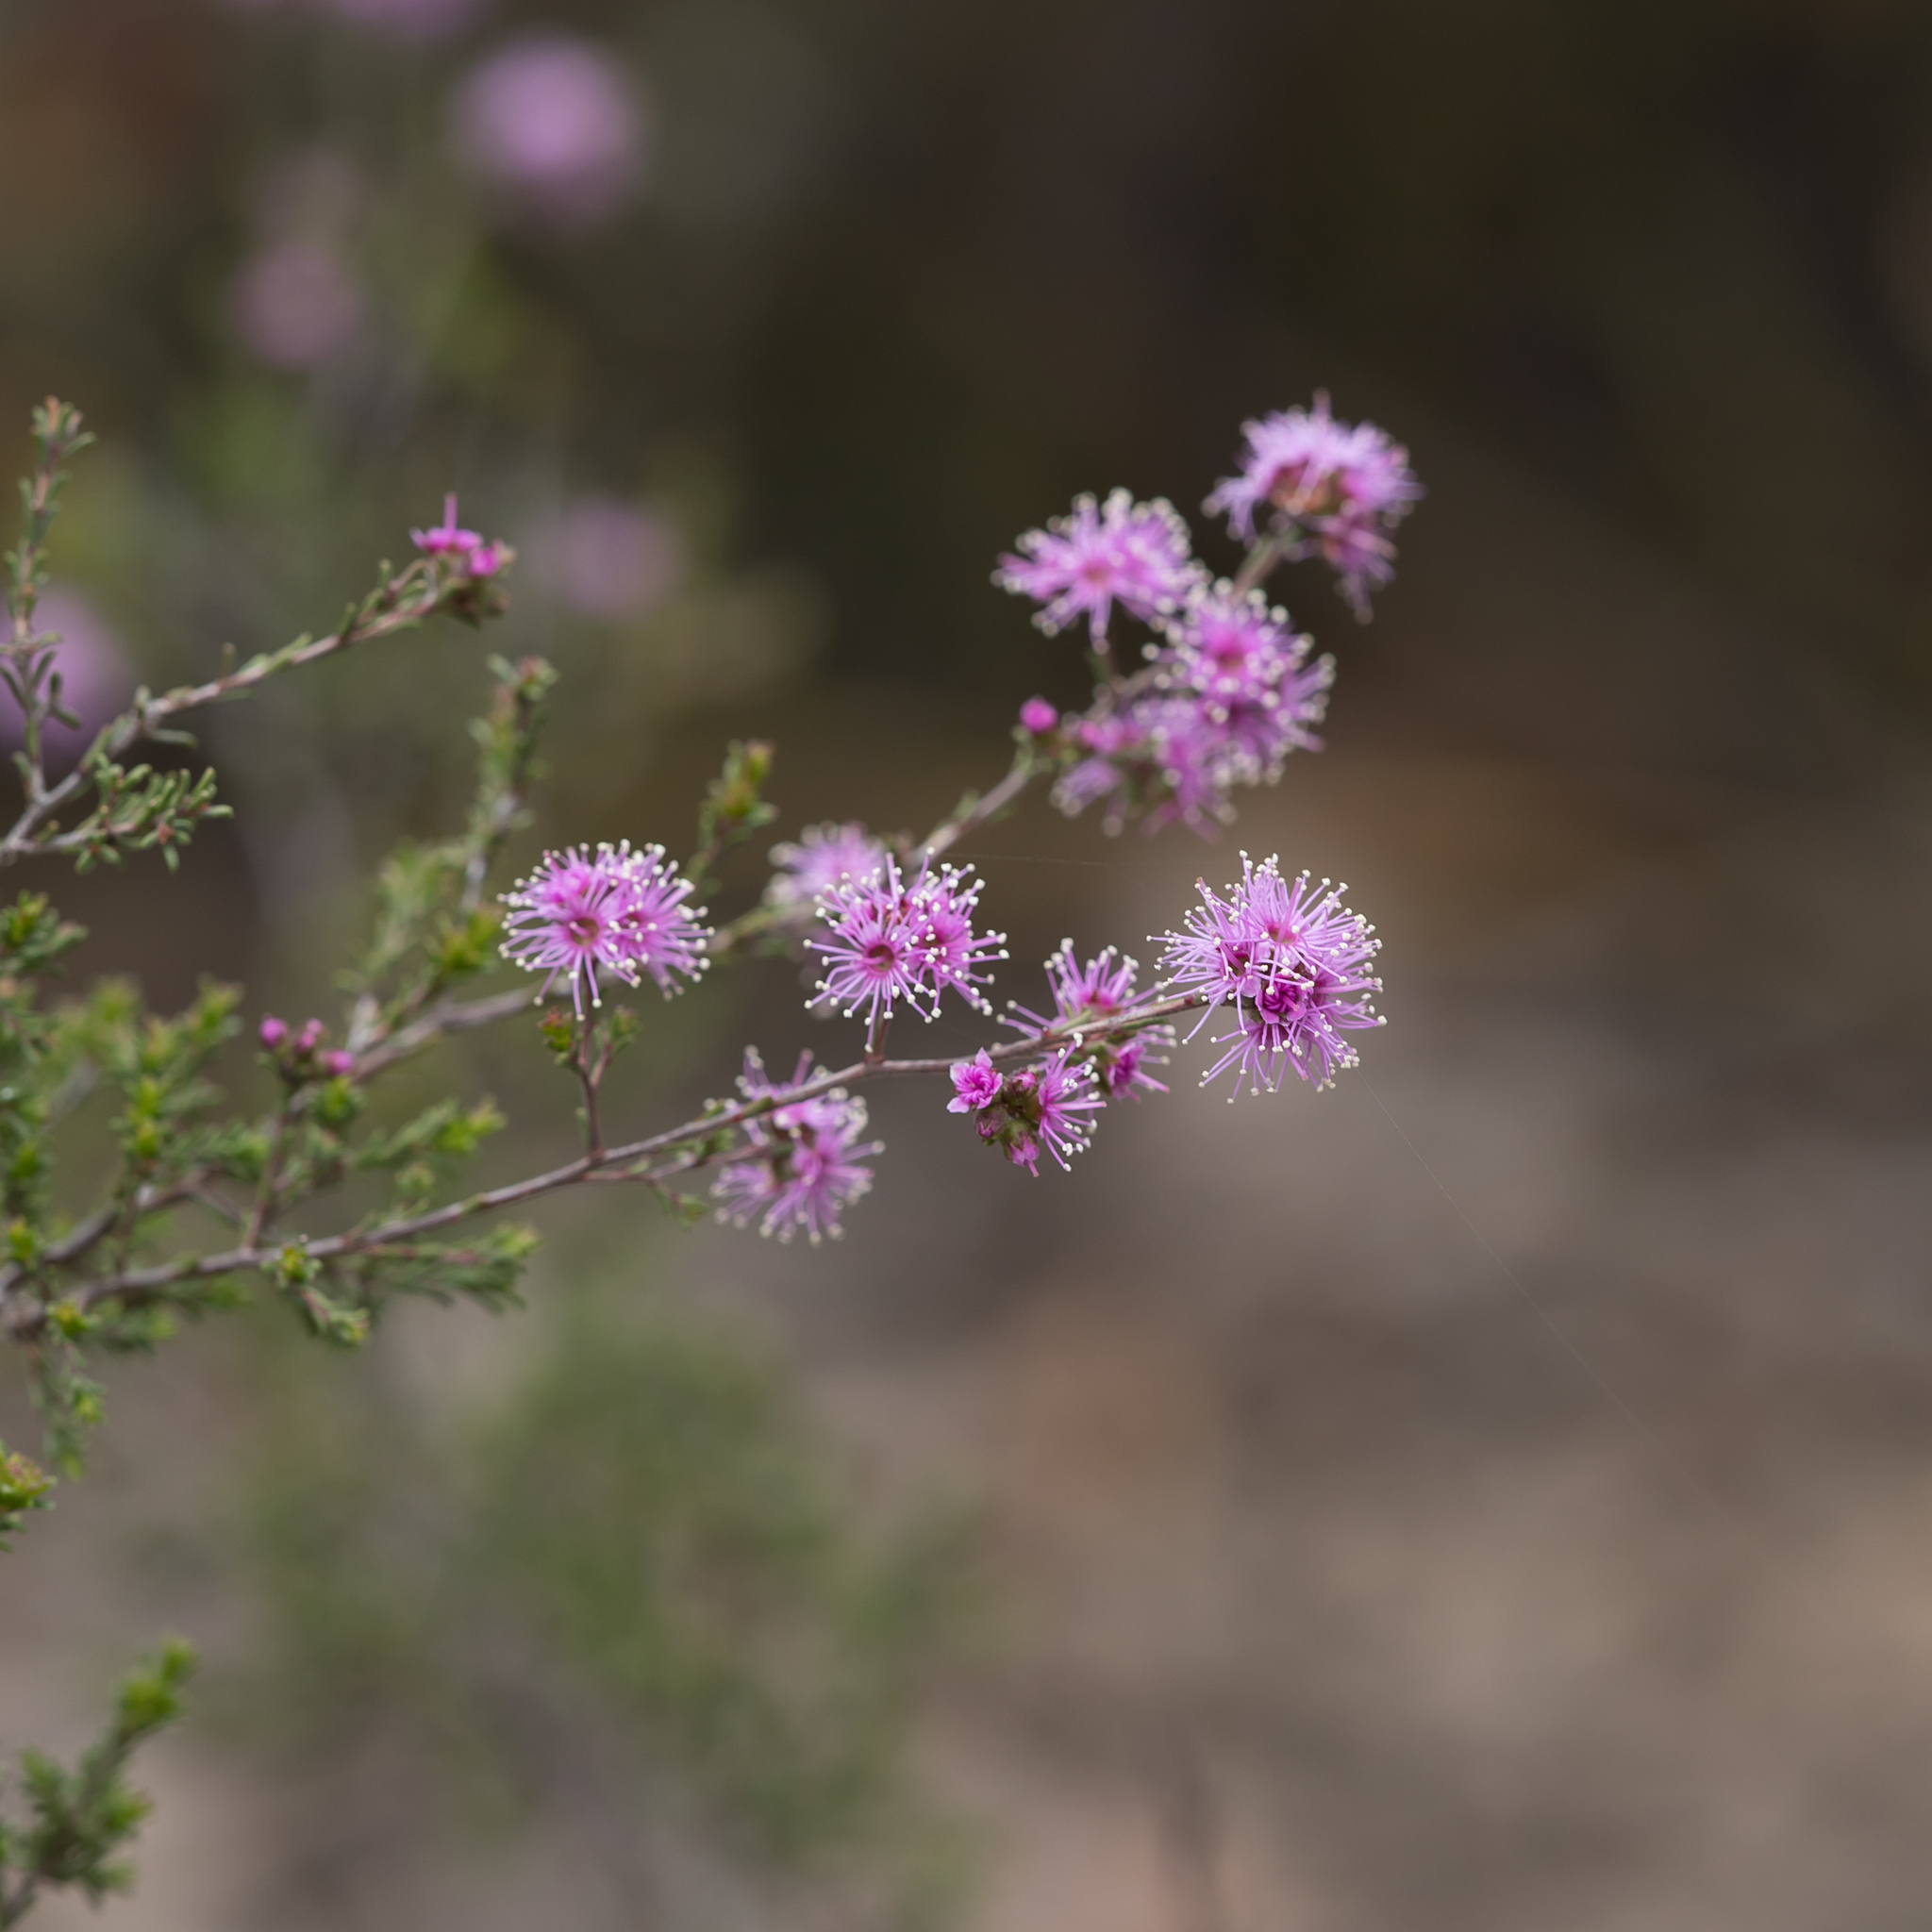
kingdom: Plantae
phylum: Tracheophyta
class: Magnoliopsida
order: Myrtales
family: Myrtaceae
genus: Kunzea
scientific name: Kunzea parvifolia
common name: Violet kunzea
